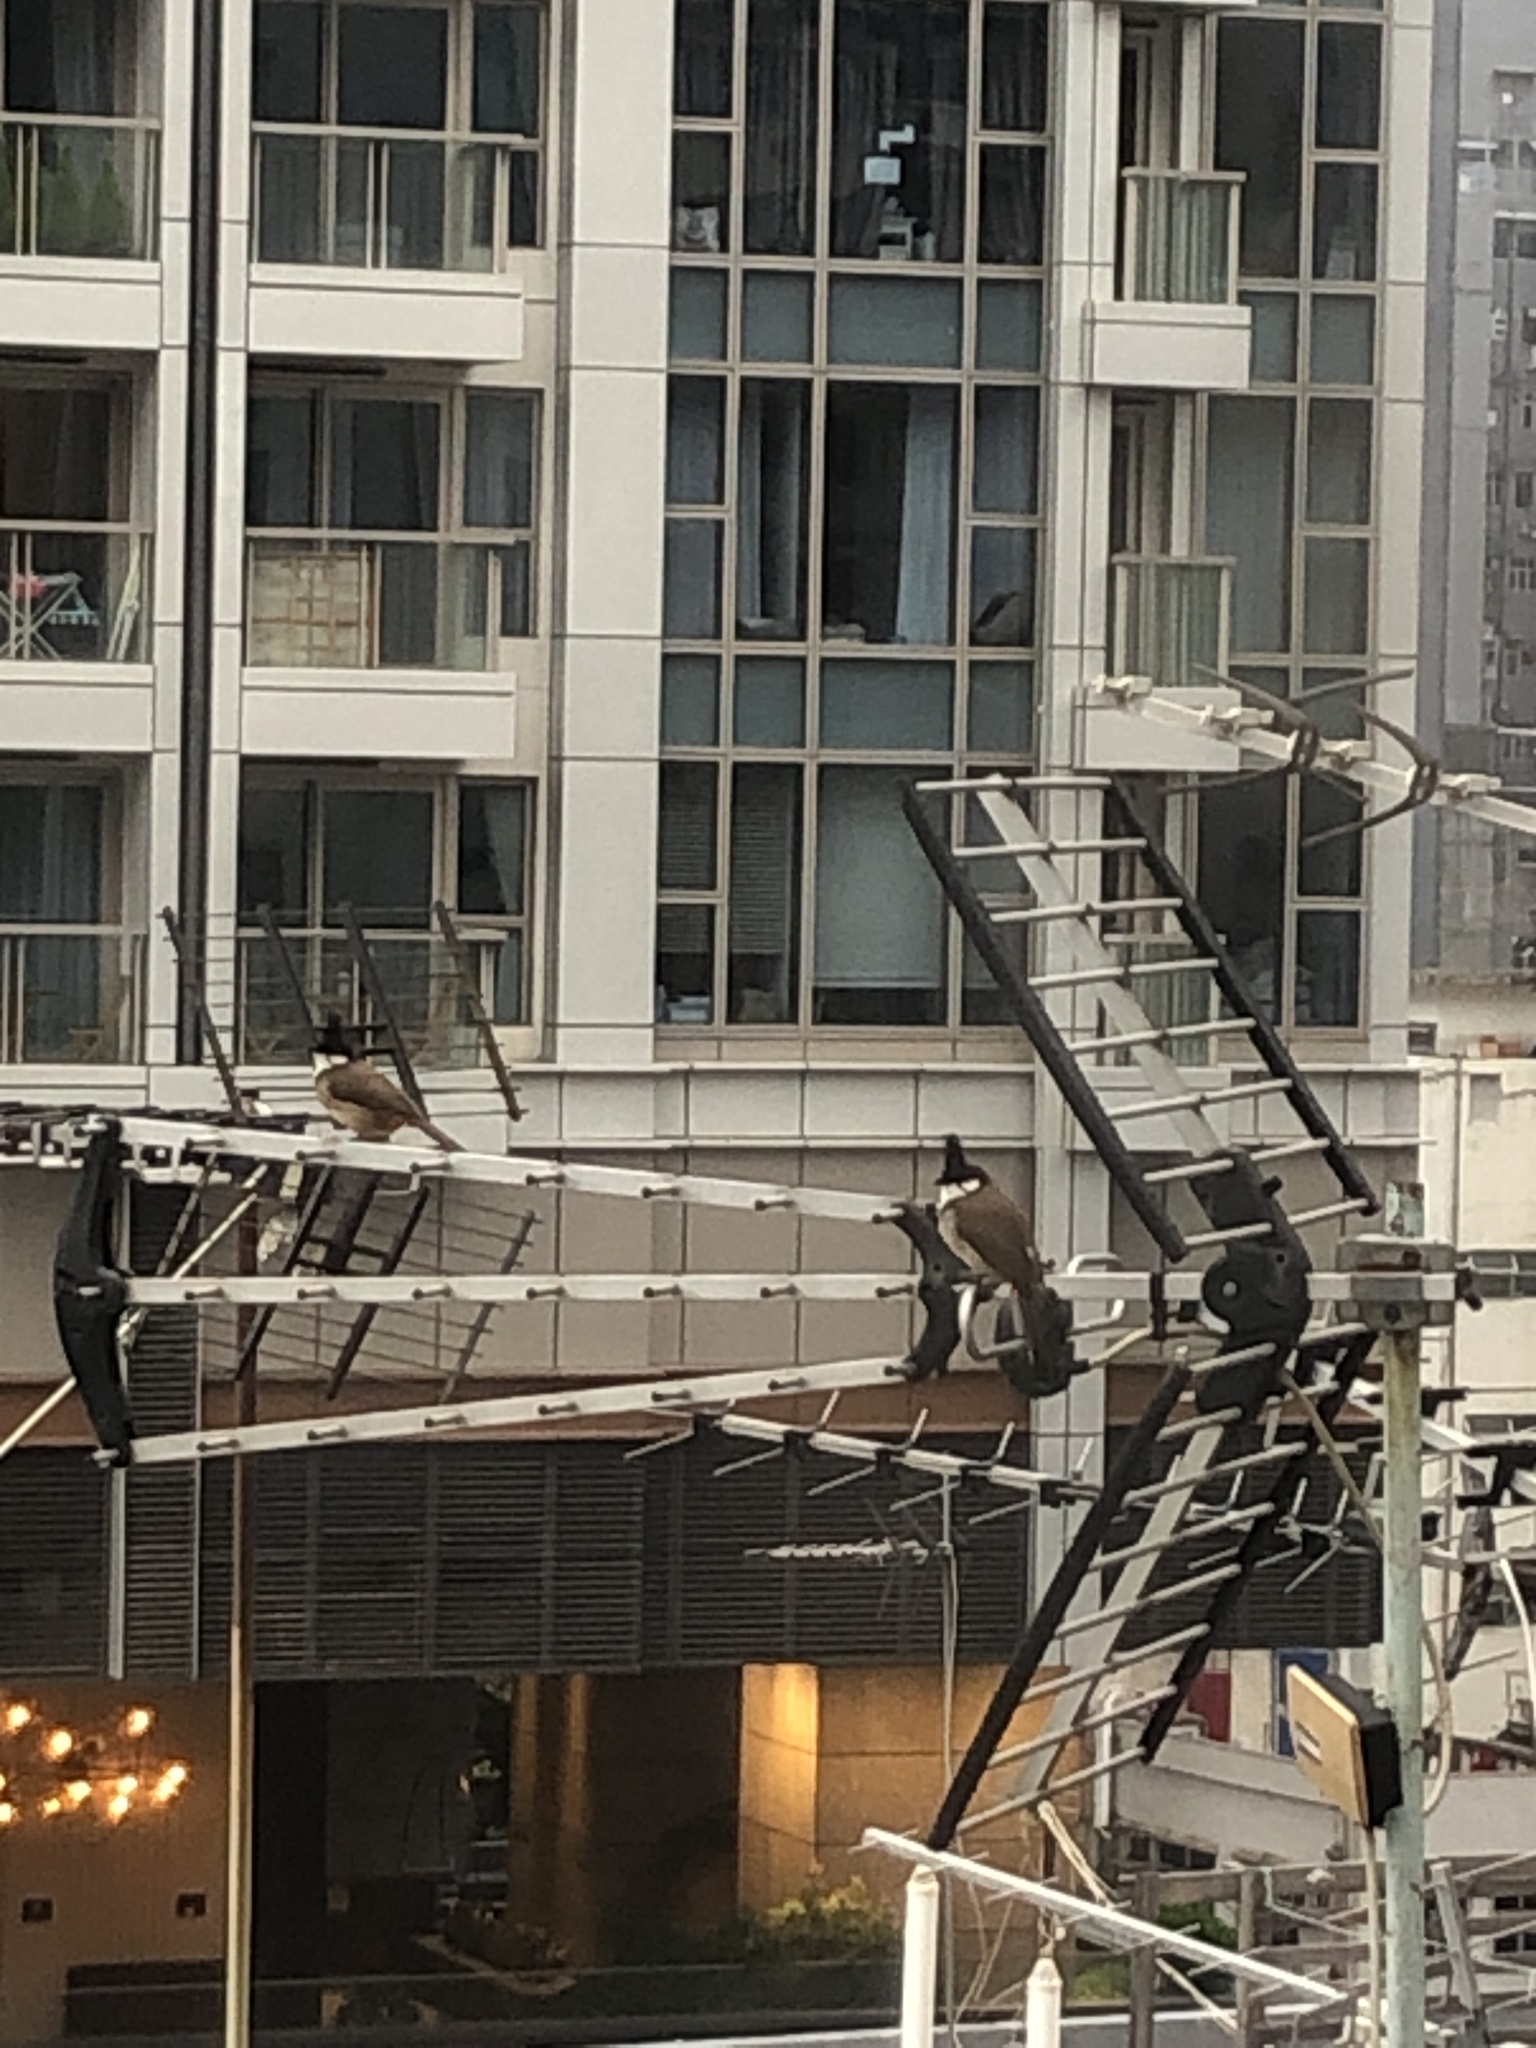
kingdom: Animalia
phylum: Chordata
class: Aves
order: Passeriformes
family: Pycnonotidae
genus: Pycnonotus
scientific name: Pycnonotus jocosus
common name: Red-whiskered bulbul
